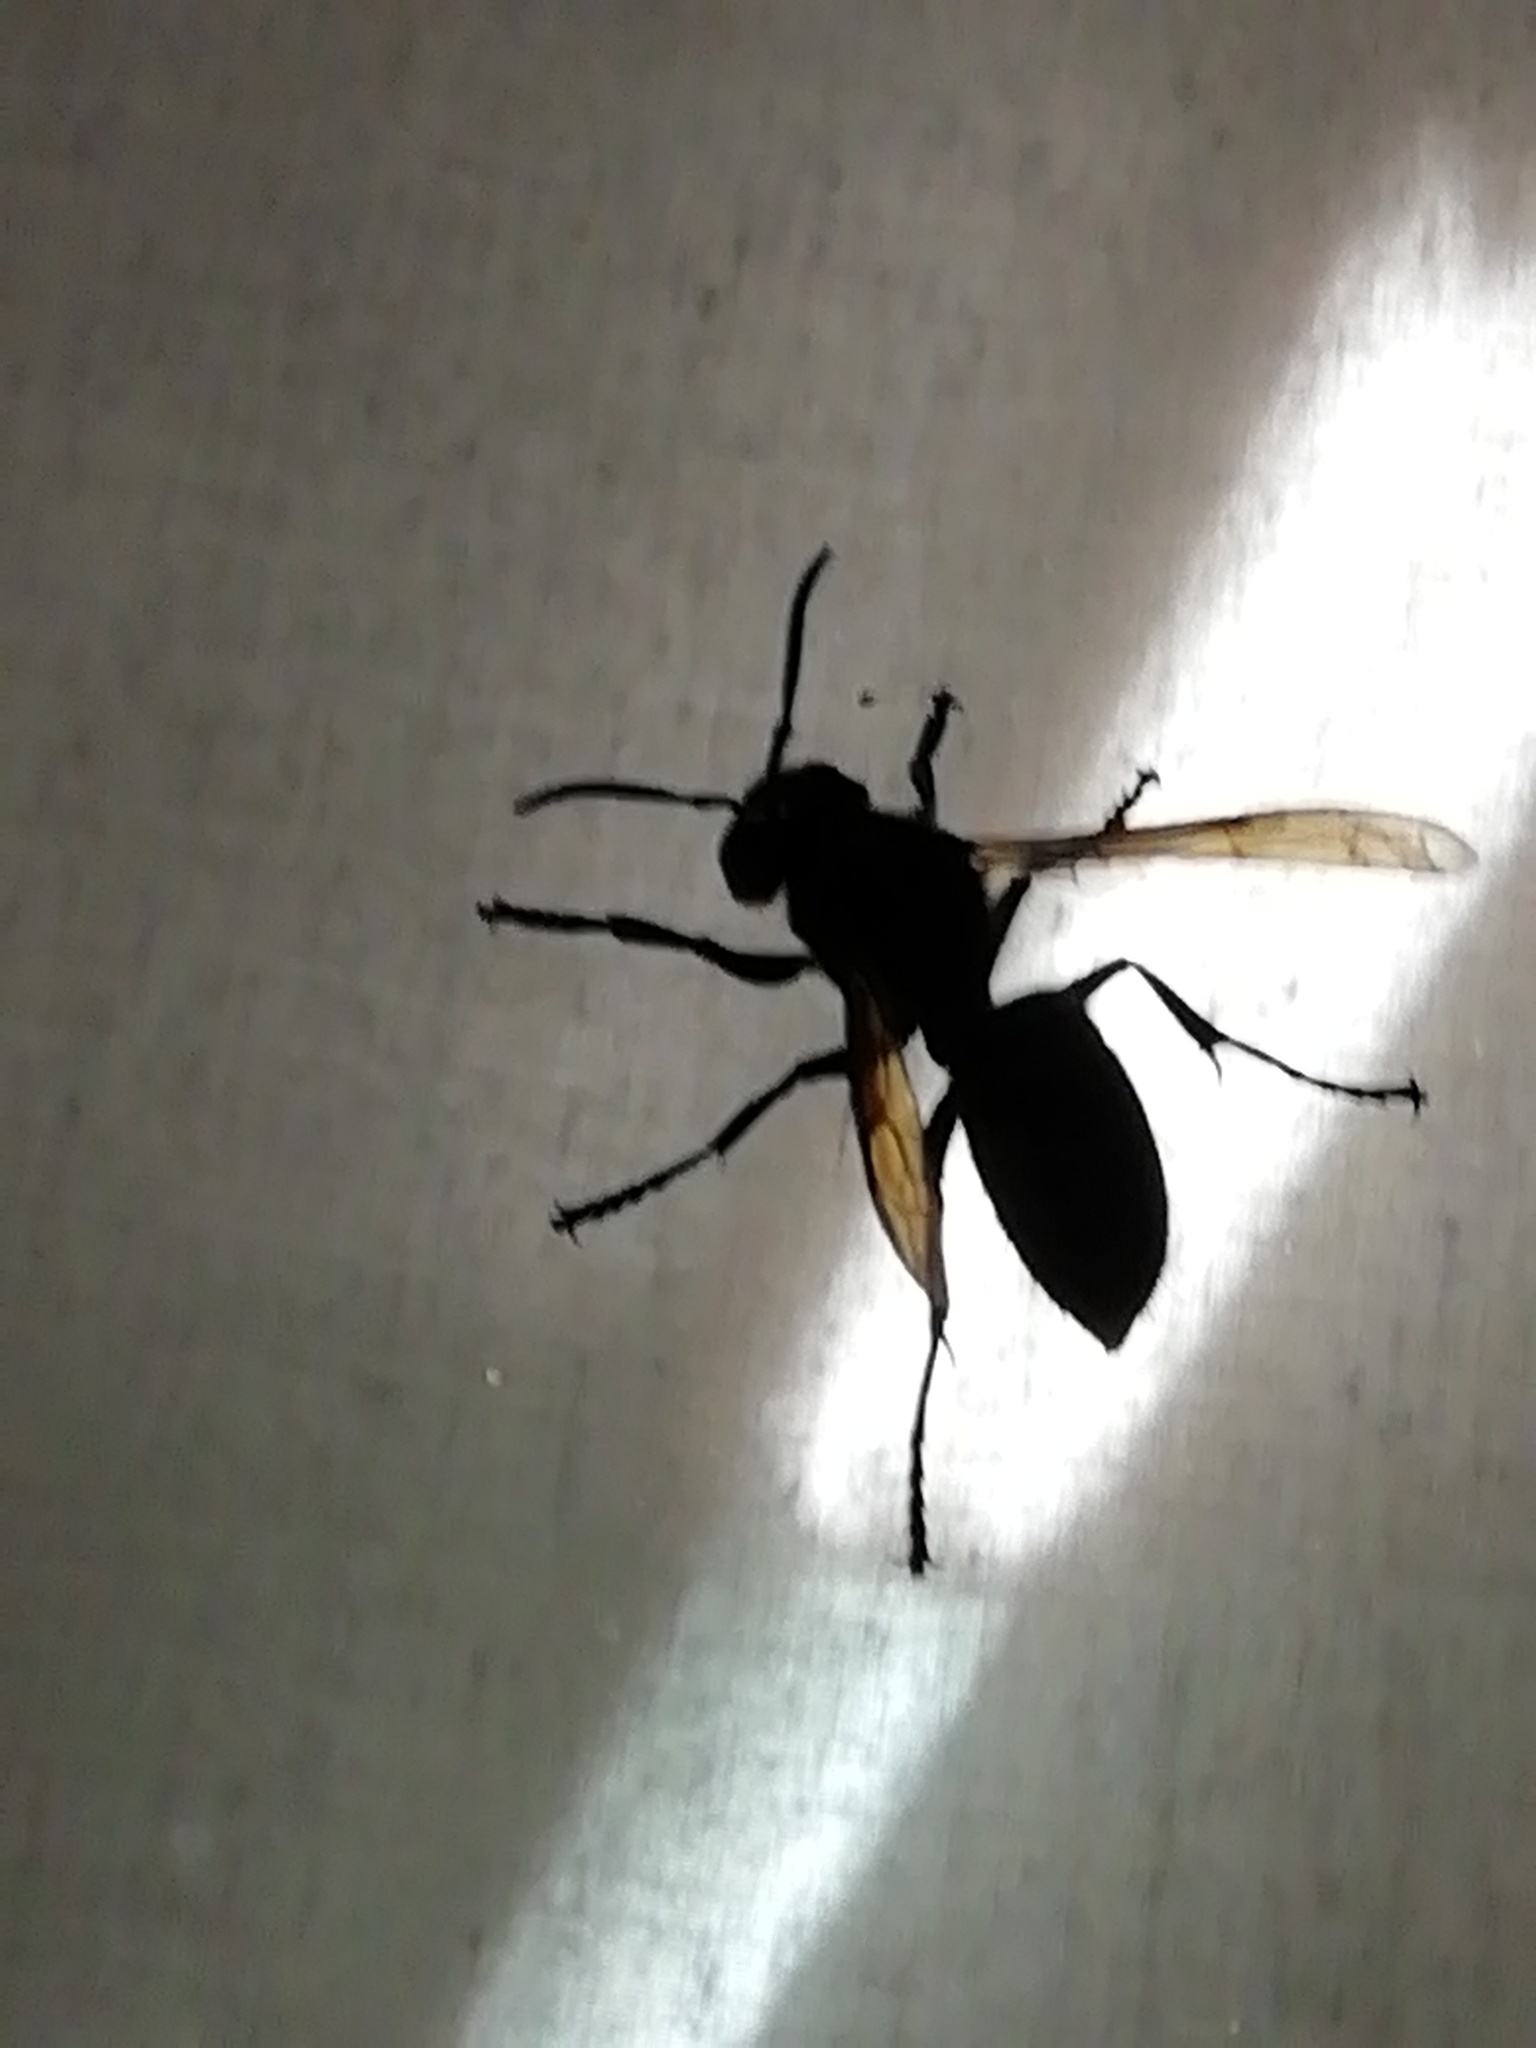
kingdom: Animalia
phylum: Arthropoda
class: Insecta
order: Hymenoptera
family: Vespidae
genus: Vespa
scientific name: Vespa crabro
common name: Hornet
